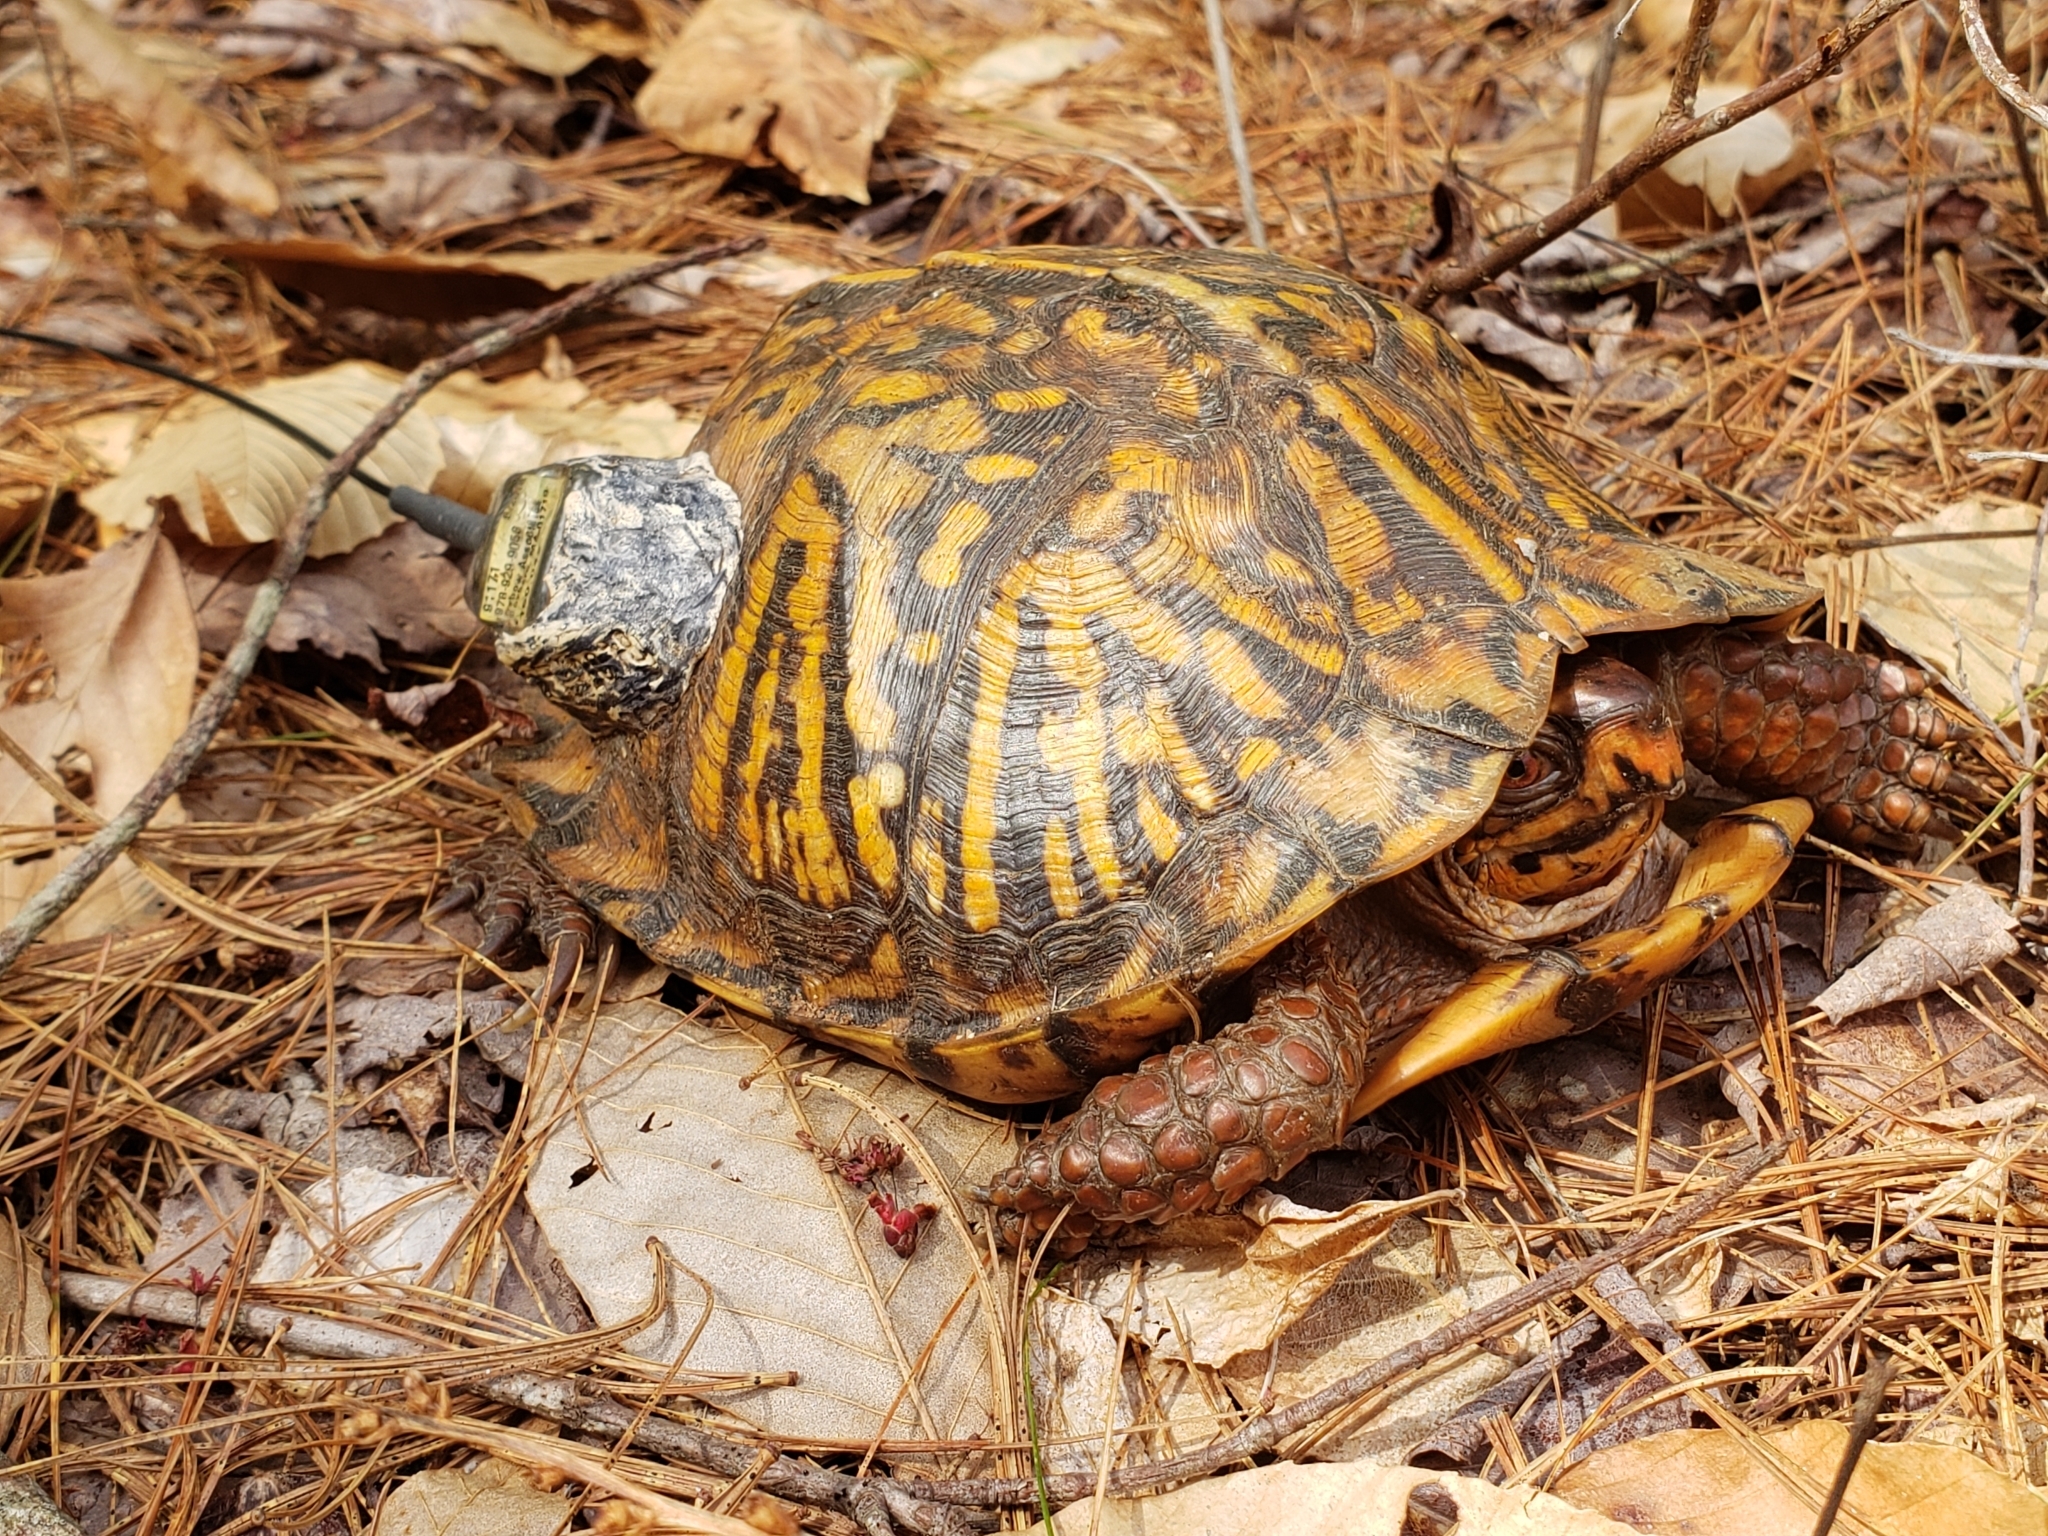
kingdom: Animalia
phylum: Chordata
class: Testudines
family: Emydidae
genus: Terrapene
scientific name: Terrapene carolina
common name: Common box turtle
